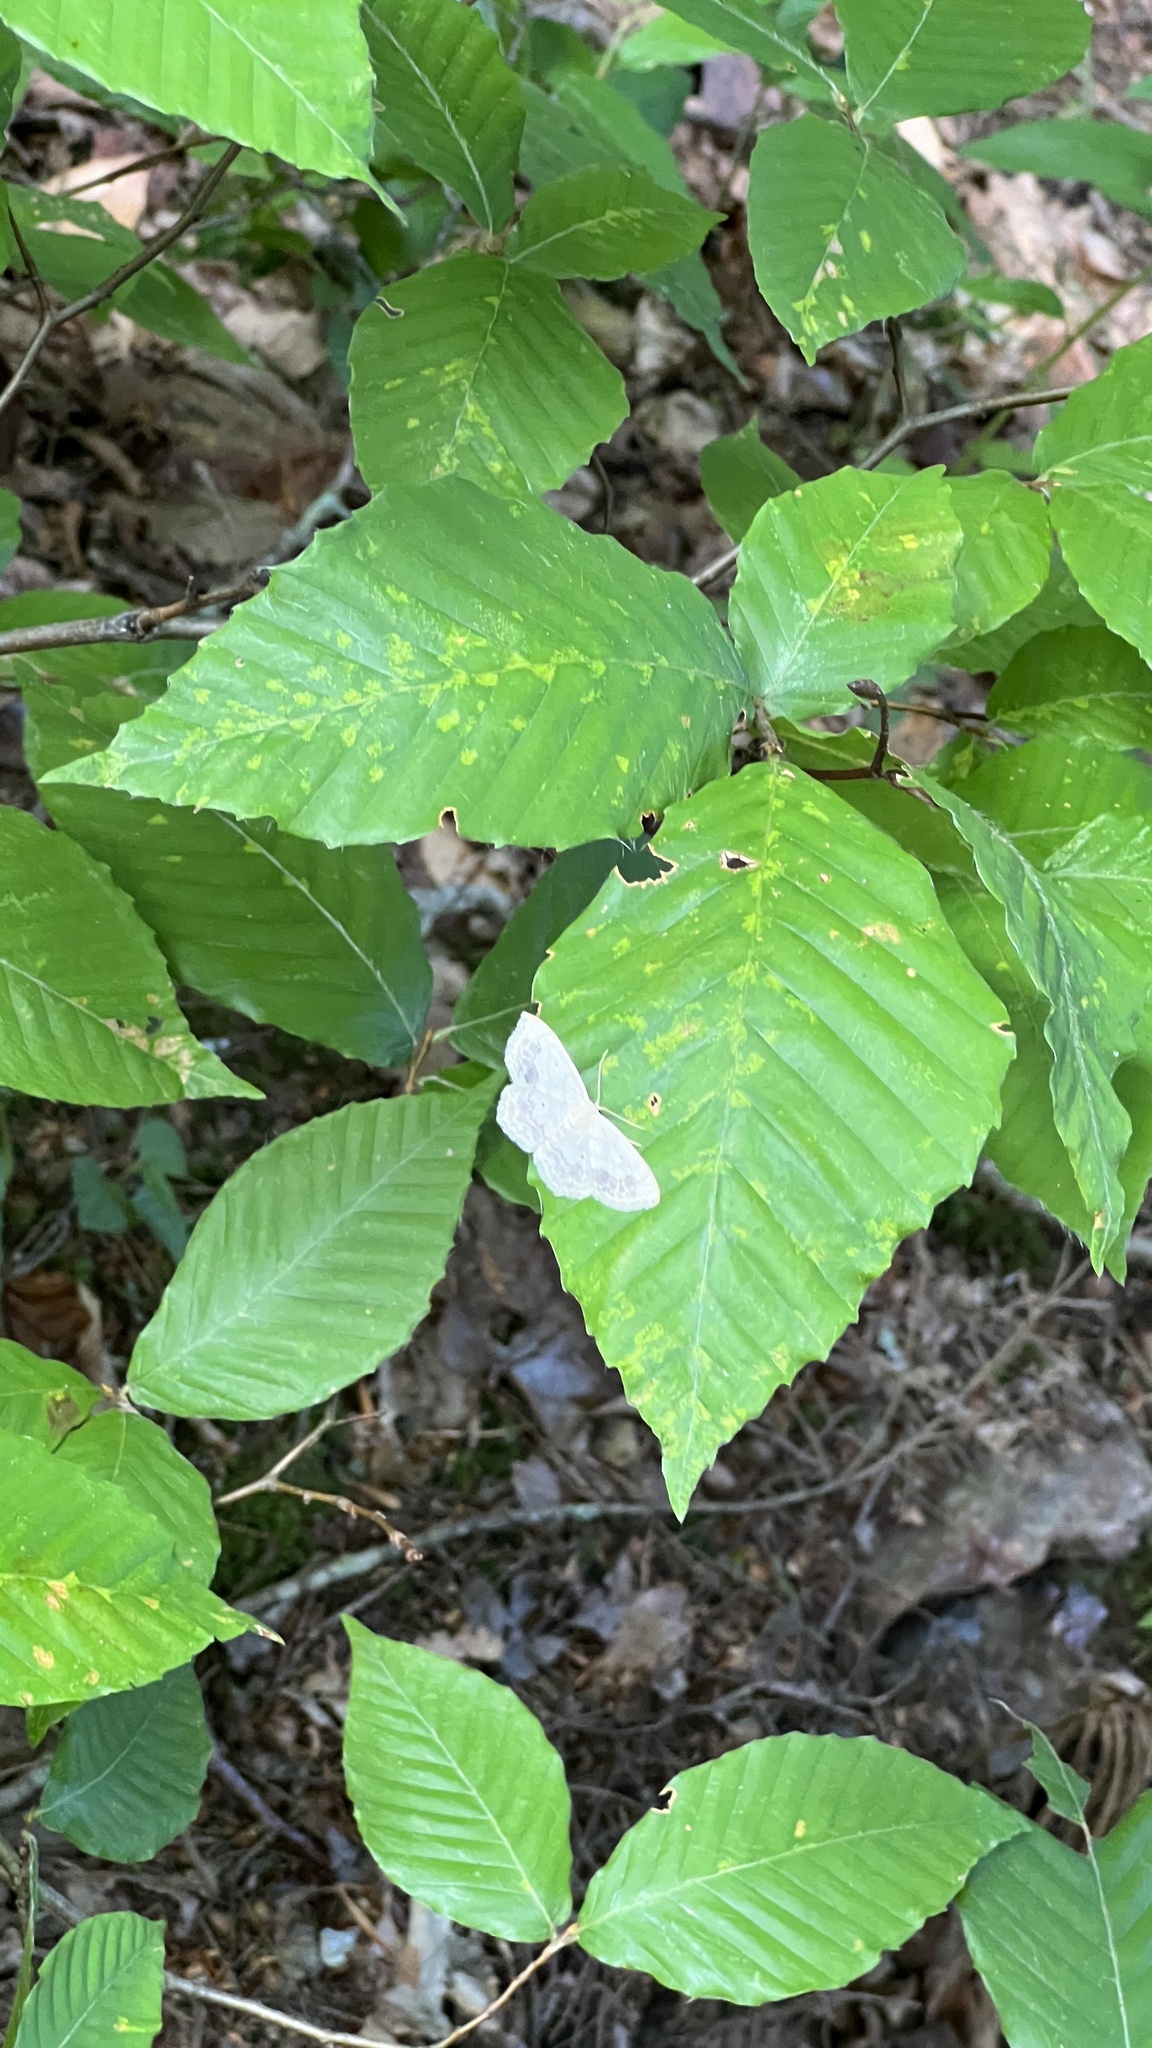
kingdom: Plantae
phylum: Tracheophyta
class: Magnoliopsida
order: Fagales
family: Fagaceae
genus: Fagus
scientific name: Fagus grandifolia
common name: American beech
